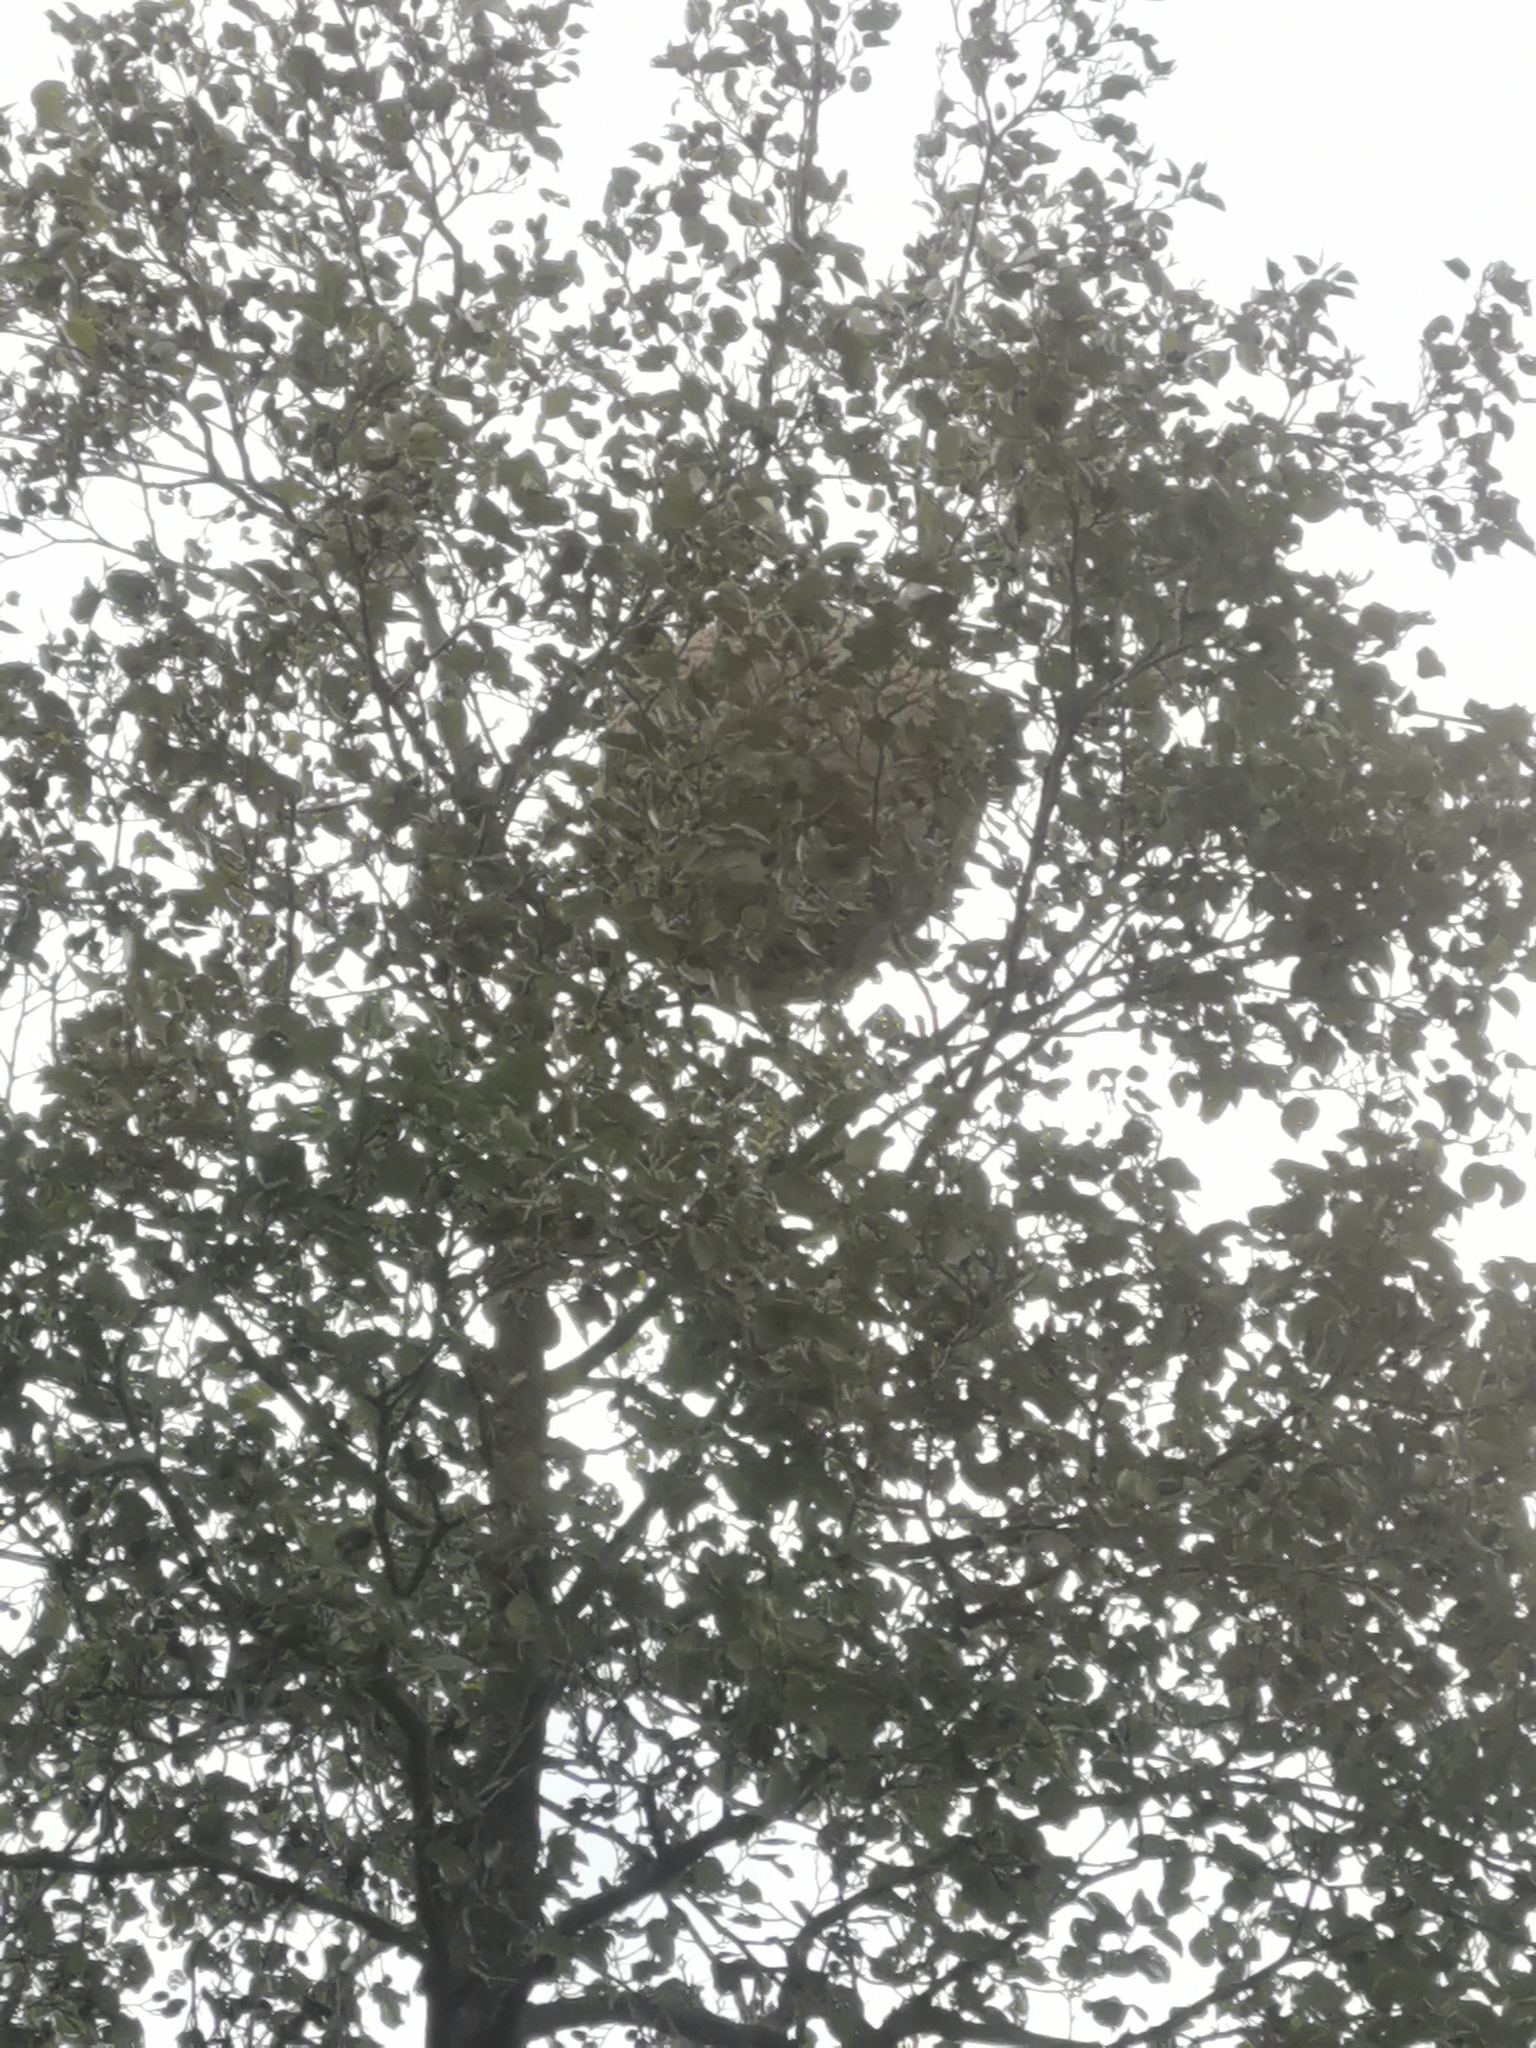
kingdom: Animalia
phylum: Arthropoda
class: Insecta
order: Hymenoptera
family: Vespidae
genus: Vespa
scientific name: Vespa velutina
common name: Asian hornet
